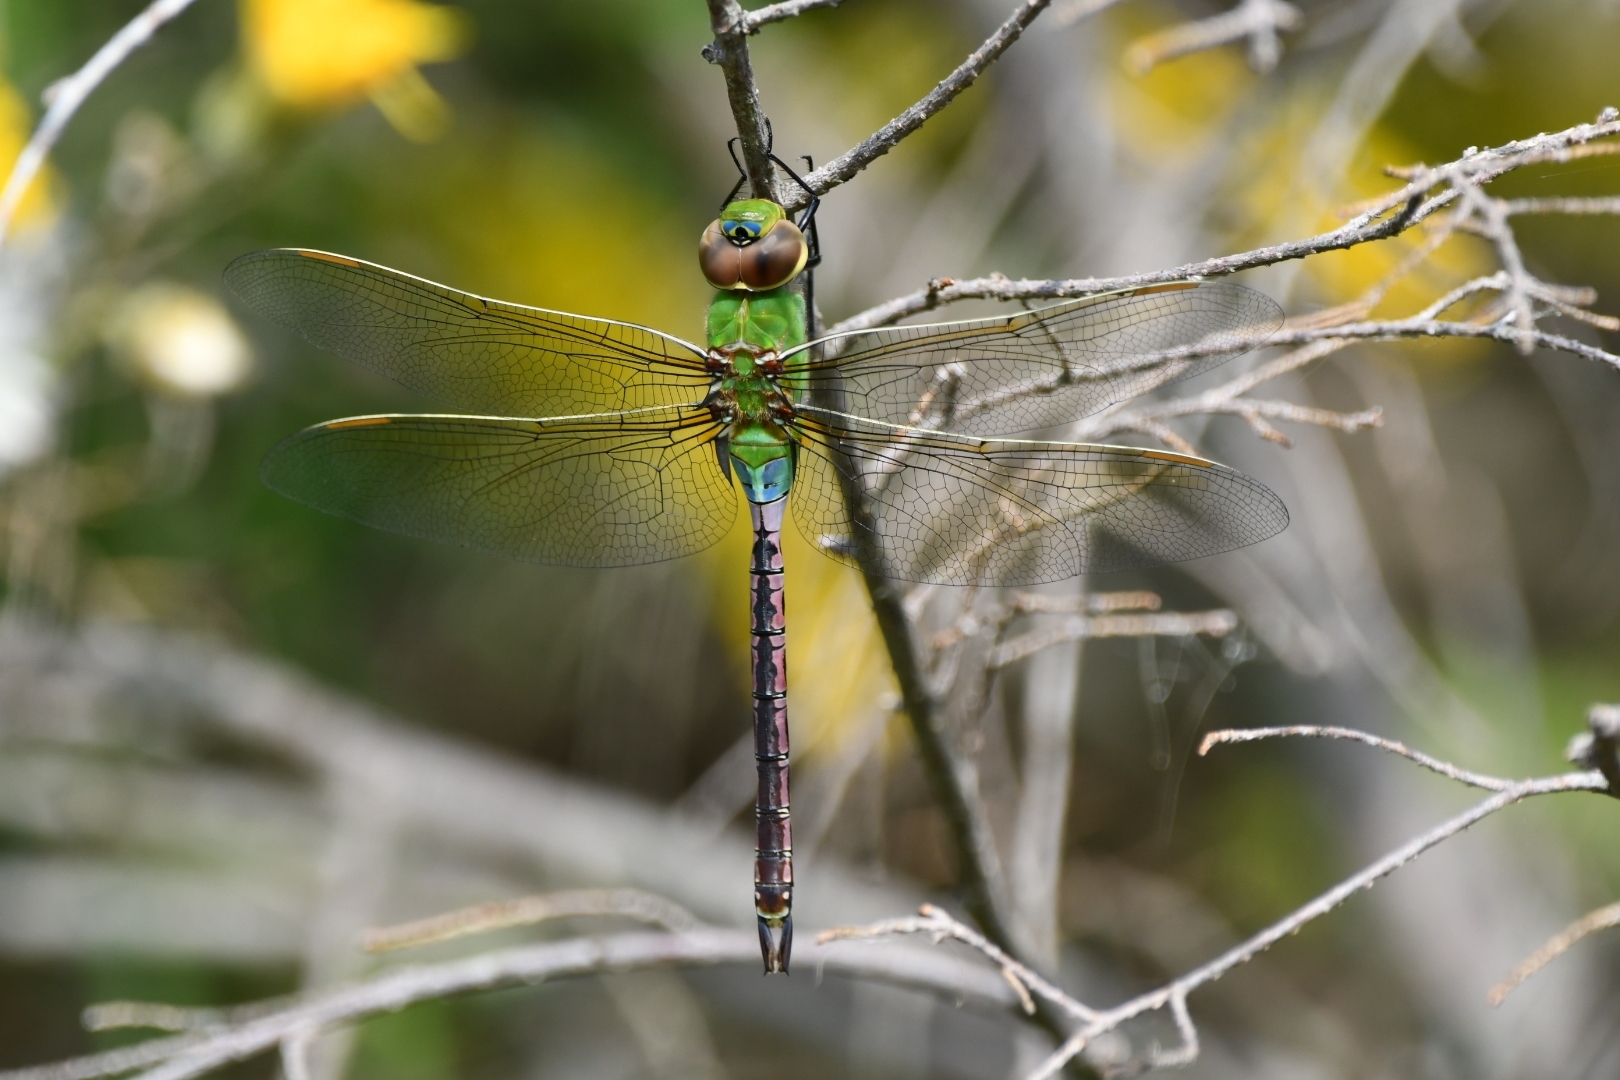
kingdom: Animalia
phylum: Arthropoda
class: Insecta
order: Odonata
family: Aeshnidae
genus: Anax
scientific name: Anax junius
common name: Common green darner
